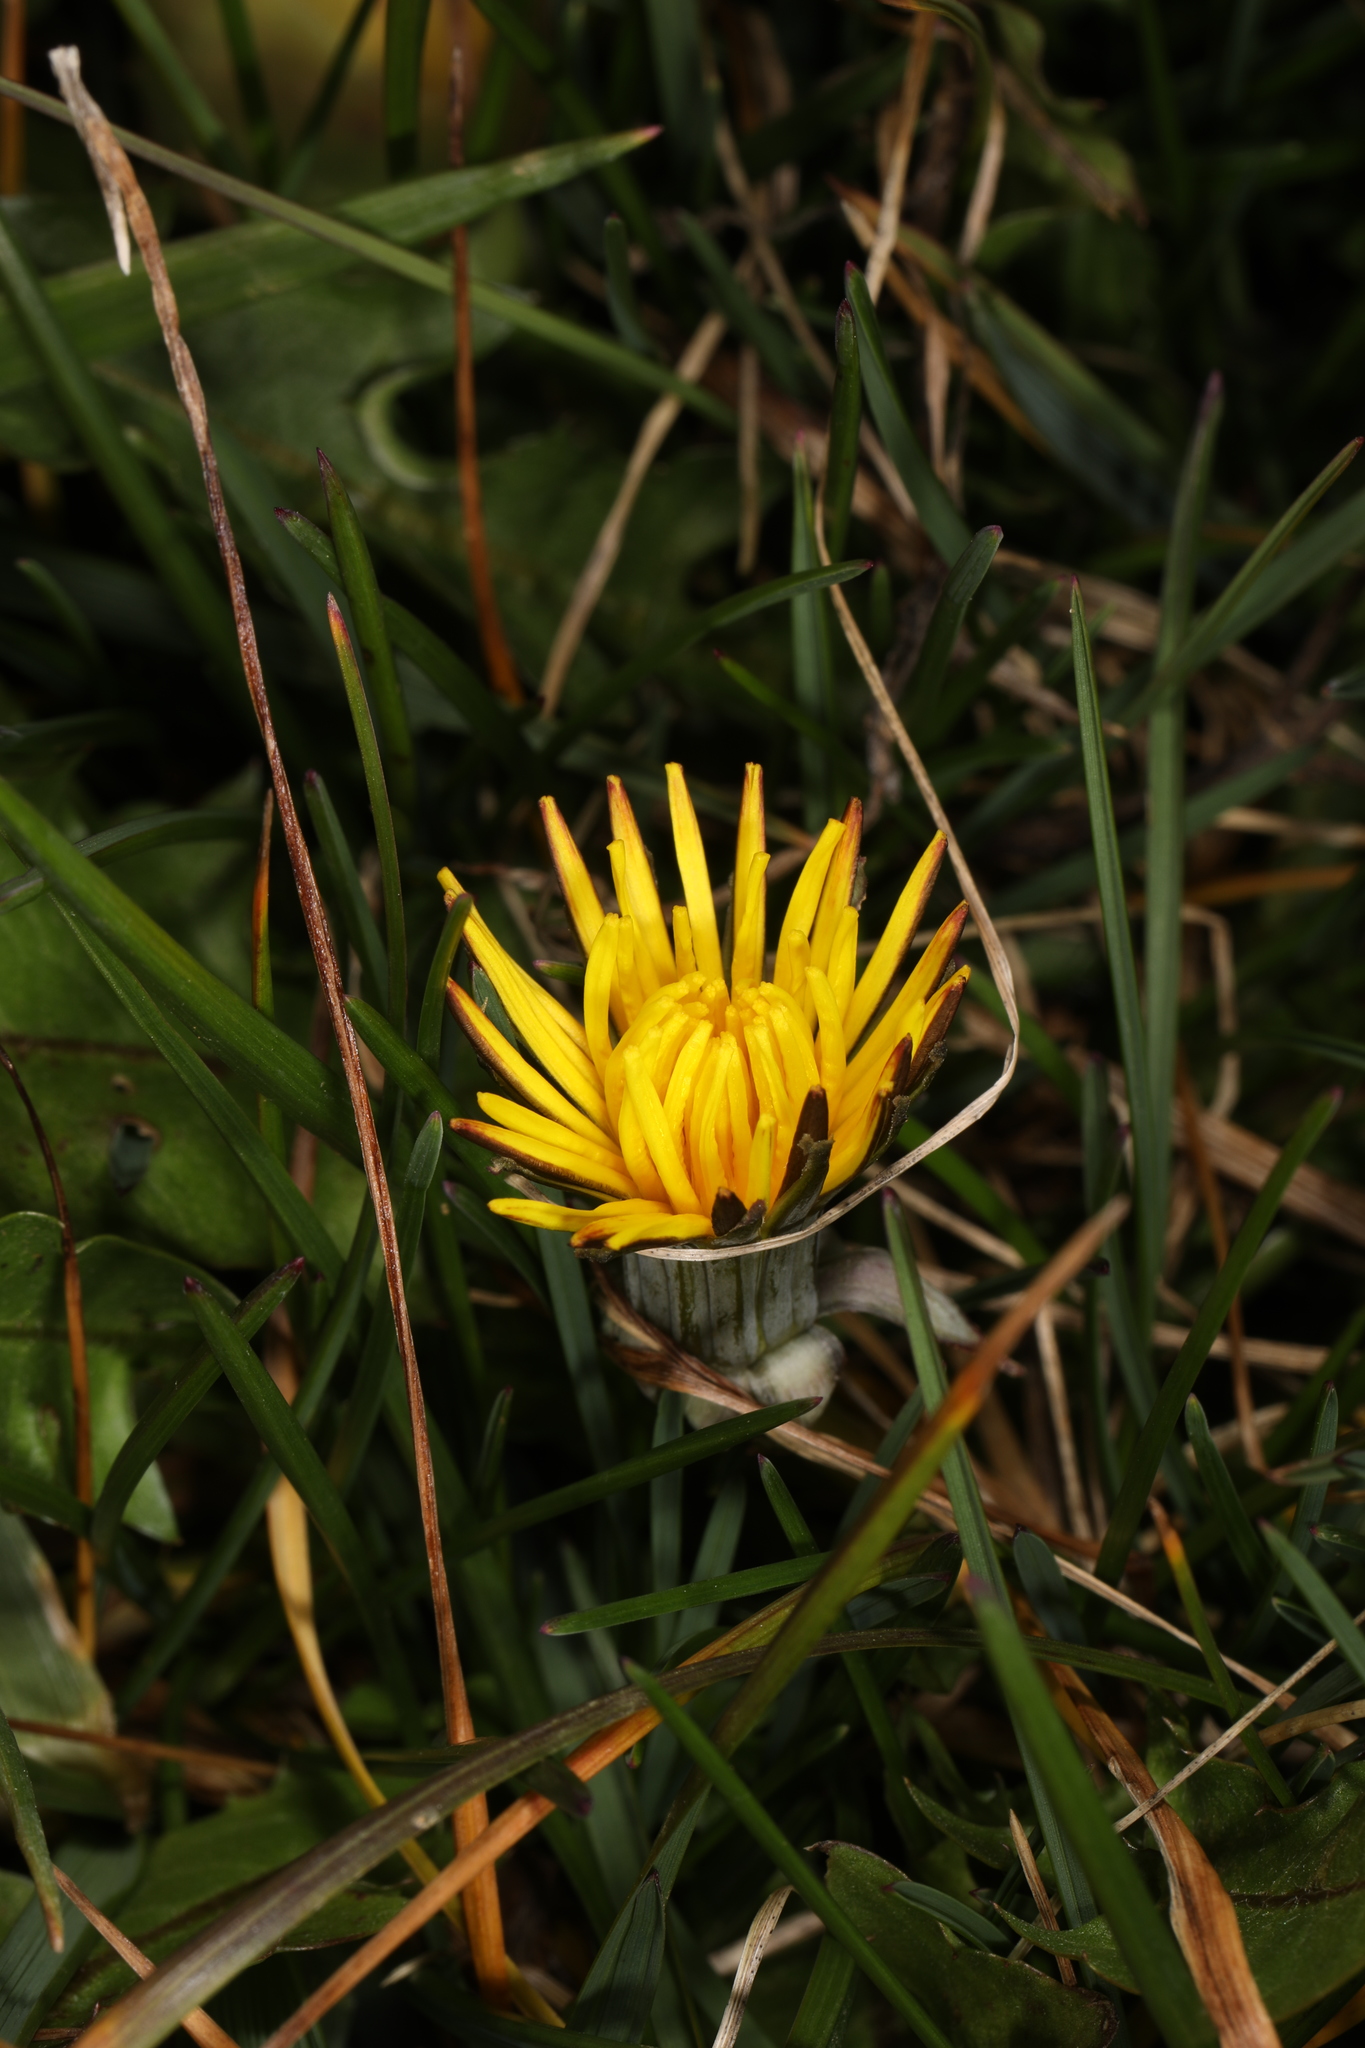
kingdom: Plantae
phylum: Tracheophyta
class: Magnoliopsida
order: Asterales
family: Asteraceae
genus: Taraxacum
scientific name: Taraxacum officinale
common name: Common dandelion
